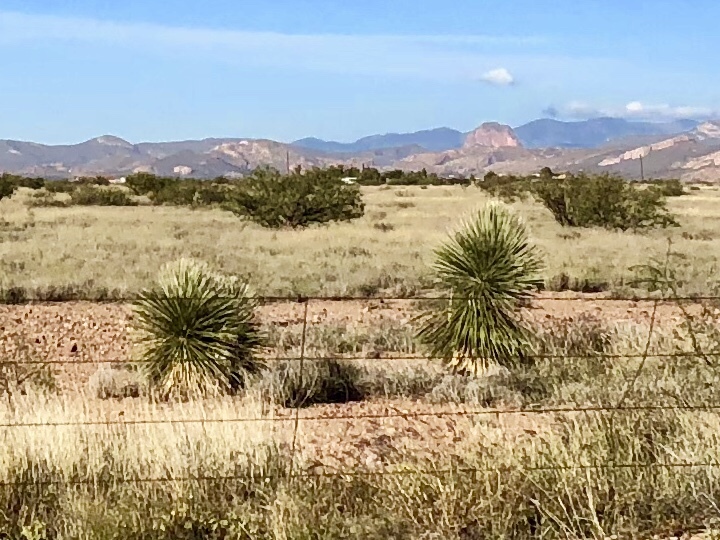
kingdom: Plantae
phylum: Tracheophyta
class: Liliopsida
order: Asparagales
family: Asparagaceae
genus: Yucca
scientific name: Yucca elata
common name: Palmella
